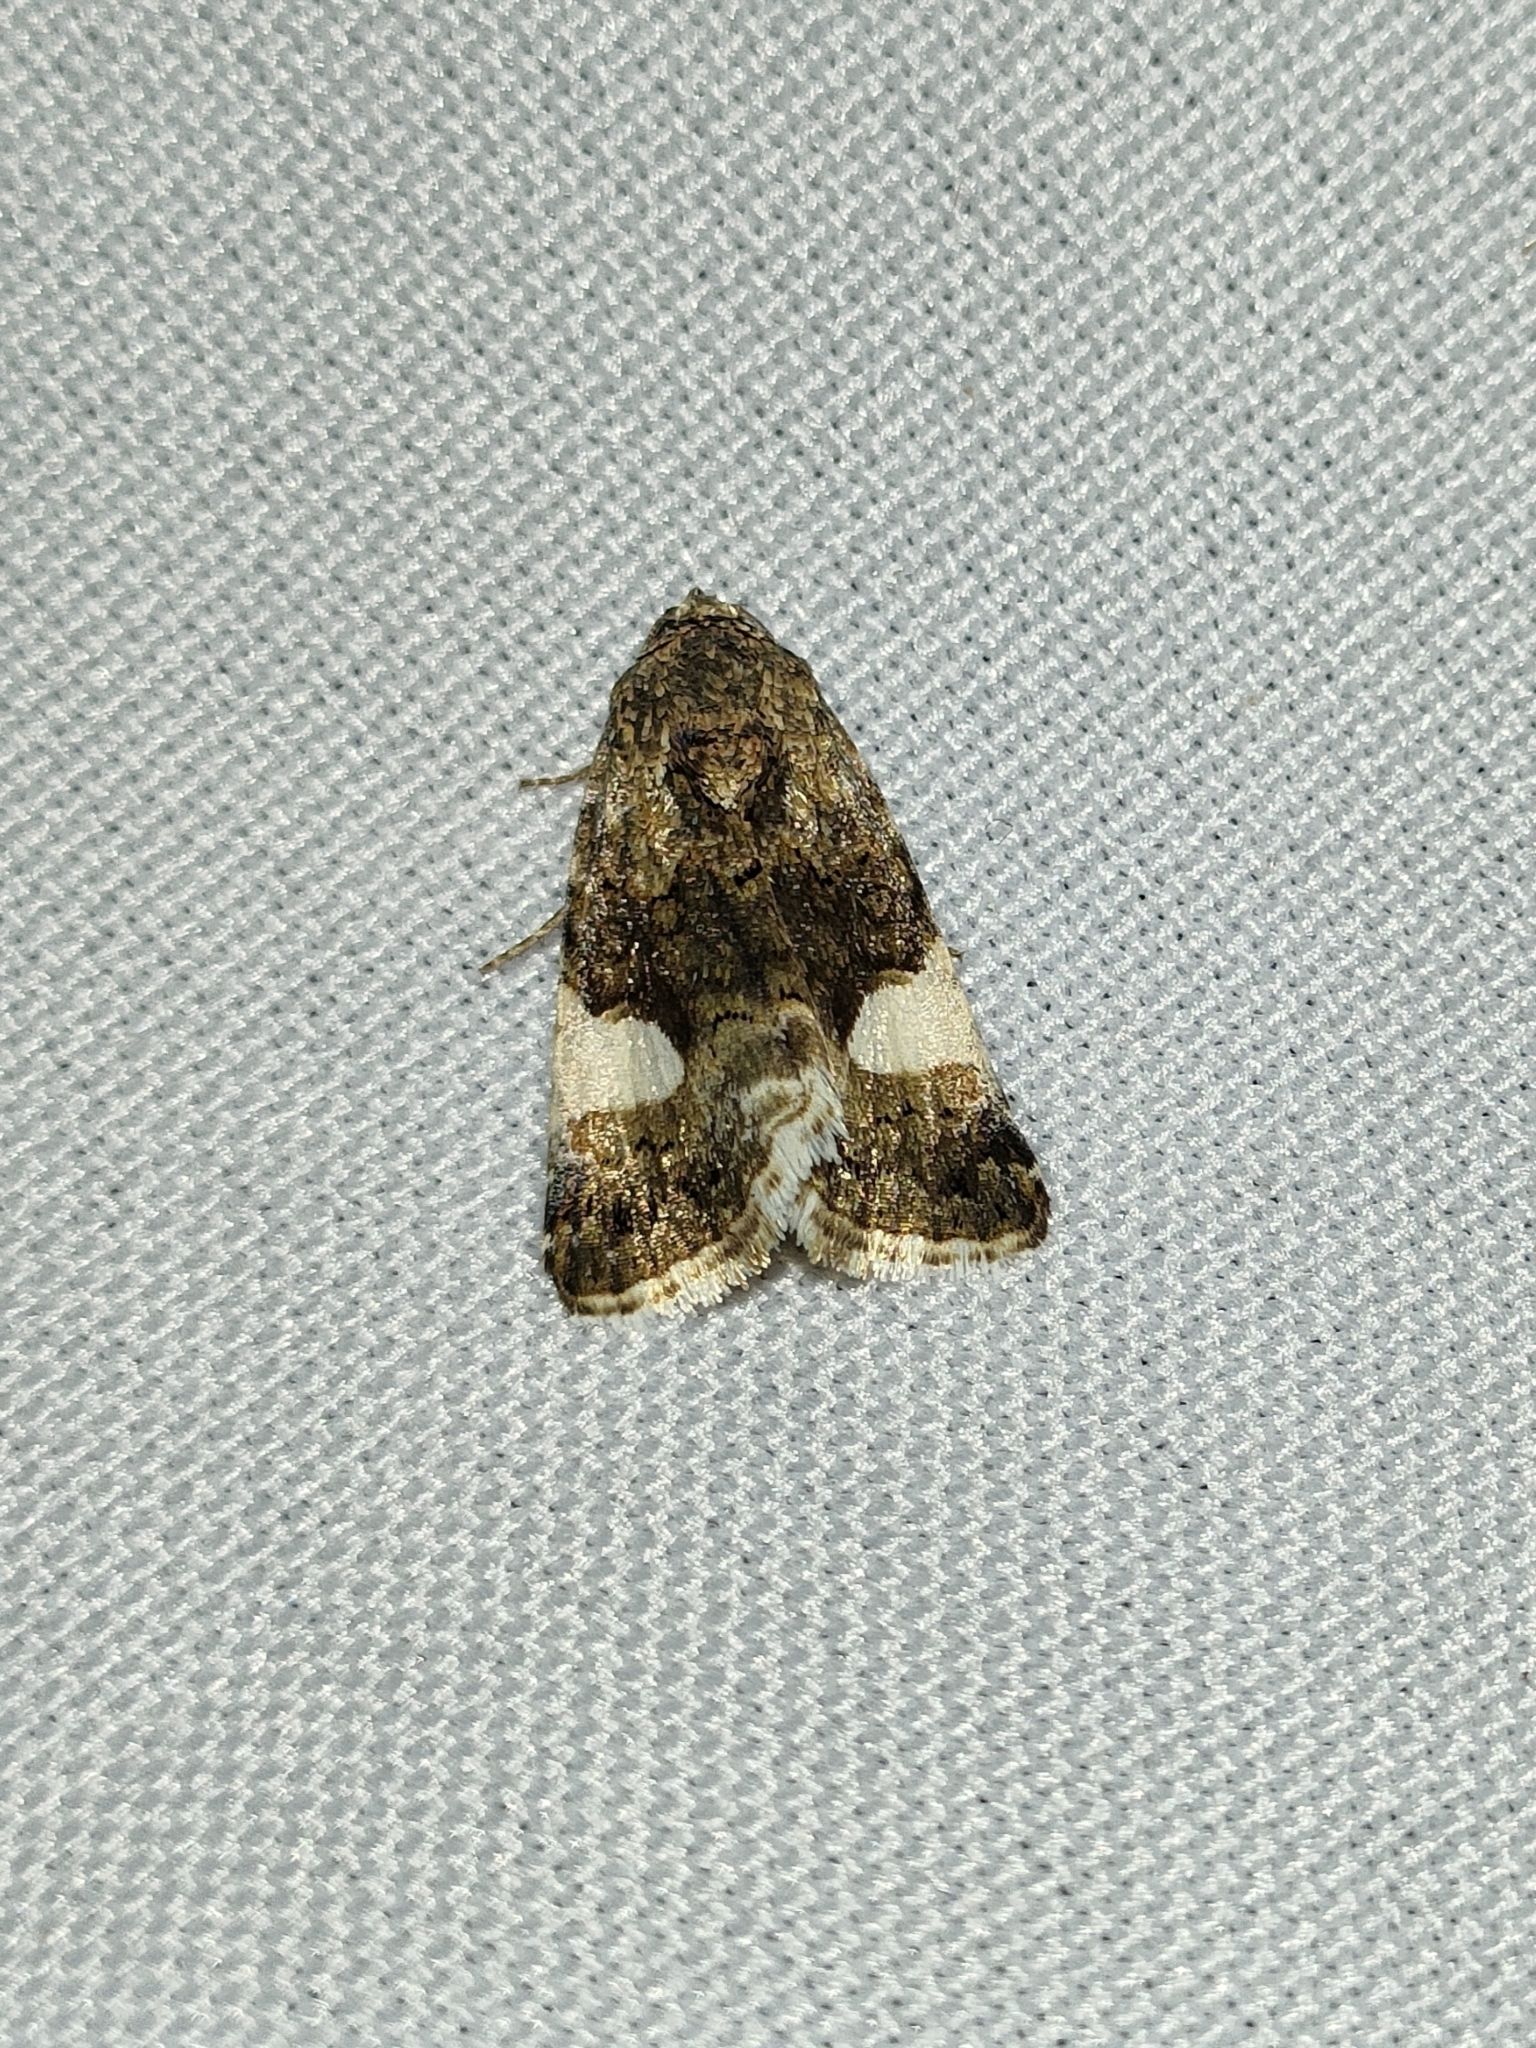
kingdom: Animalia
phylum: Arthropoda
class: Insecta
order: Lepidoptera
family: Erebidae
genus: Tyta
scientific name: Tyta luctuosa
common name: Four-spotted
